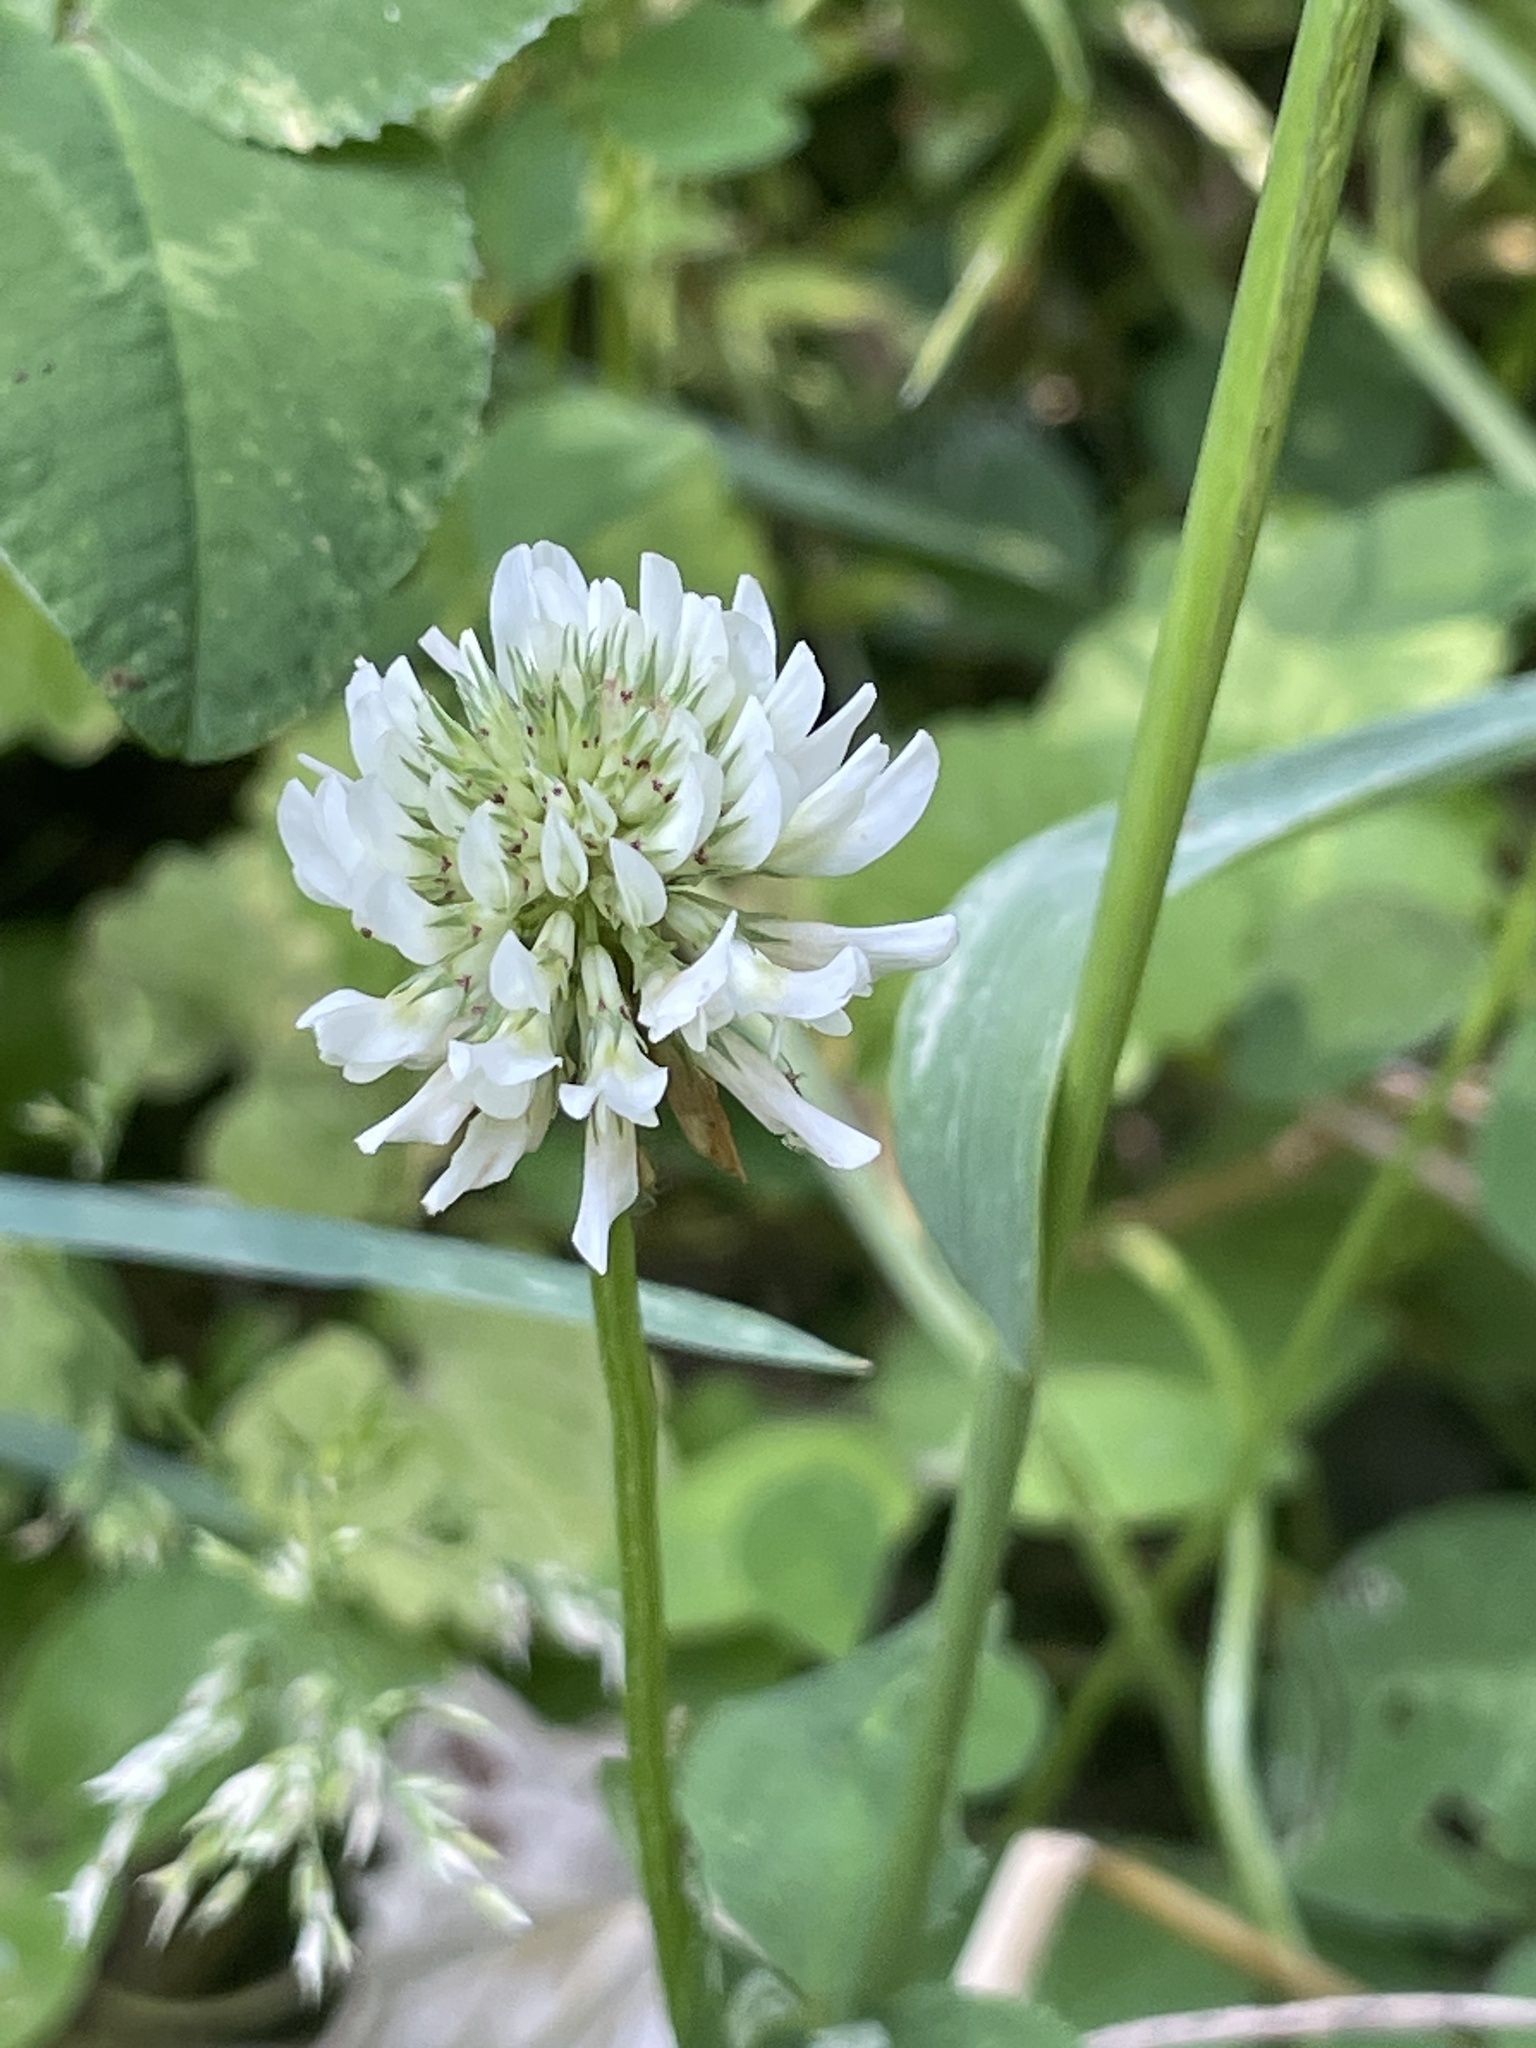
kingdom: Plantae
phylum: Tracheophyta
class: Magnoliopsida
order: Fabales
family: Fabaceae
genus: Trifolium
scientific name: Trifolium repens
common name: White clover
